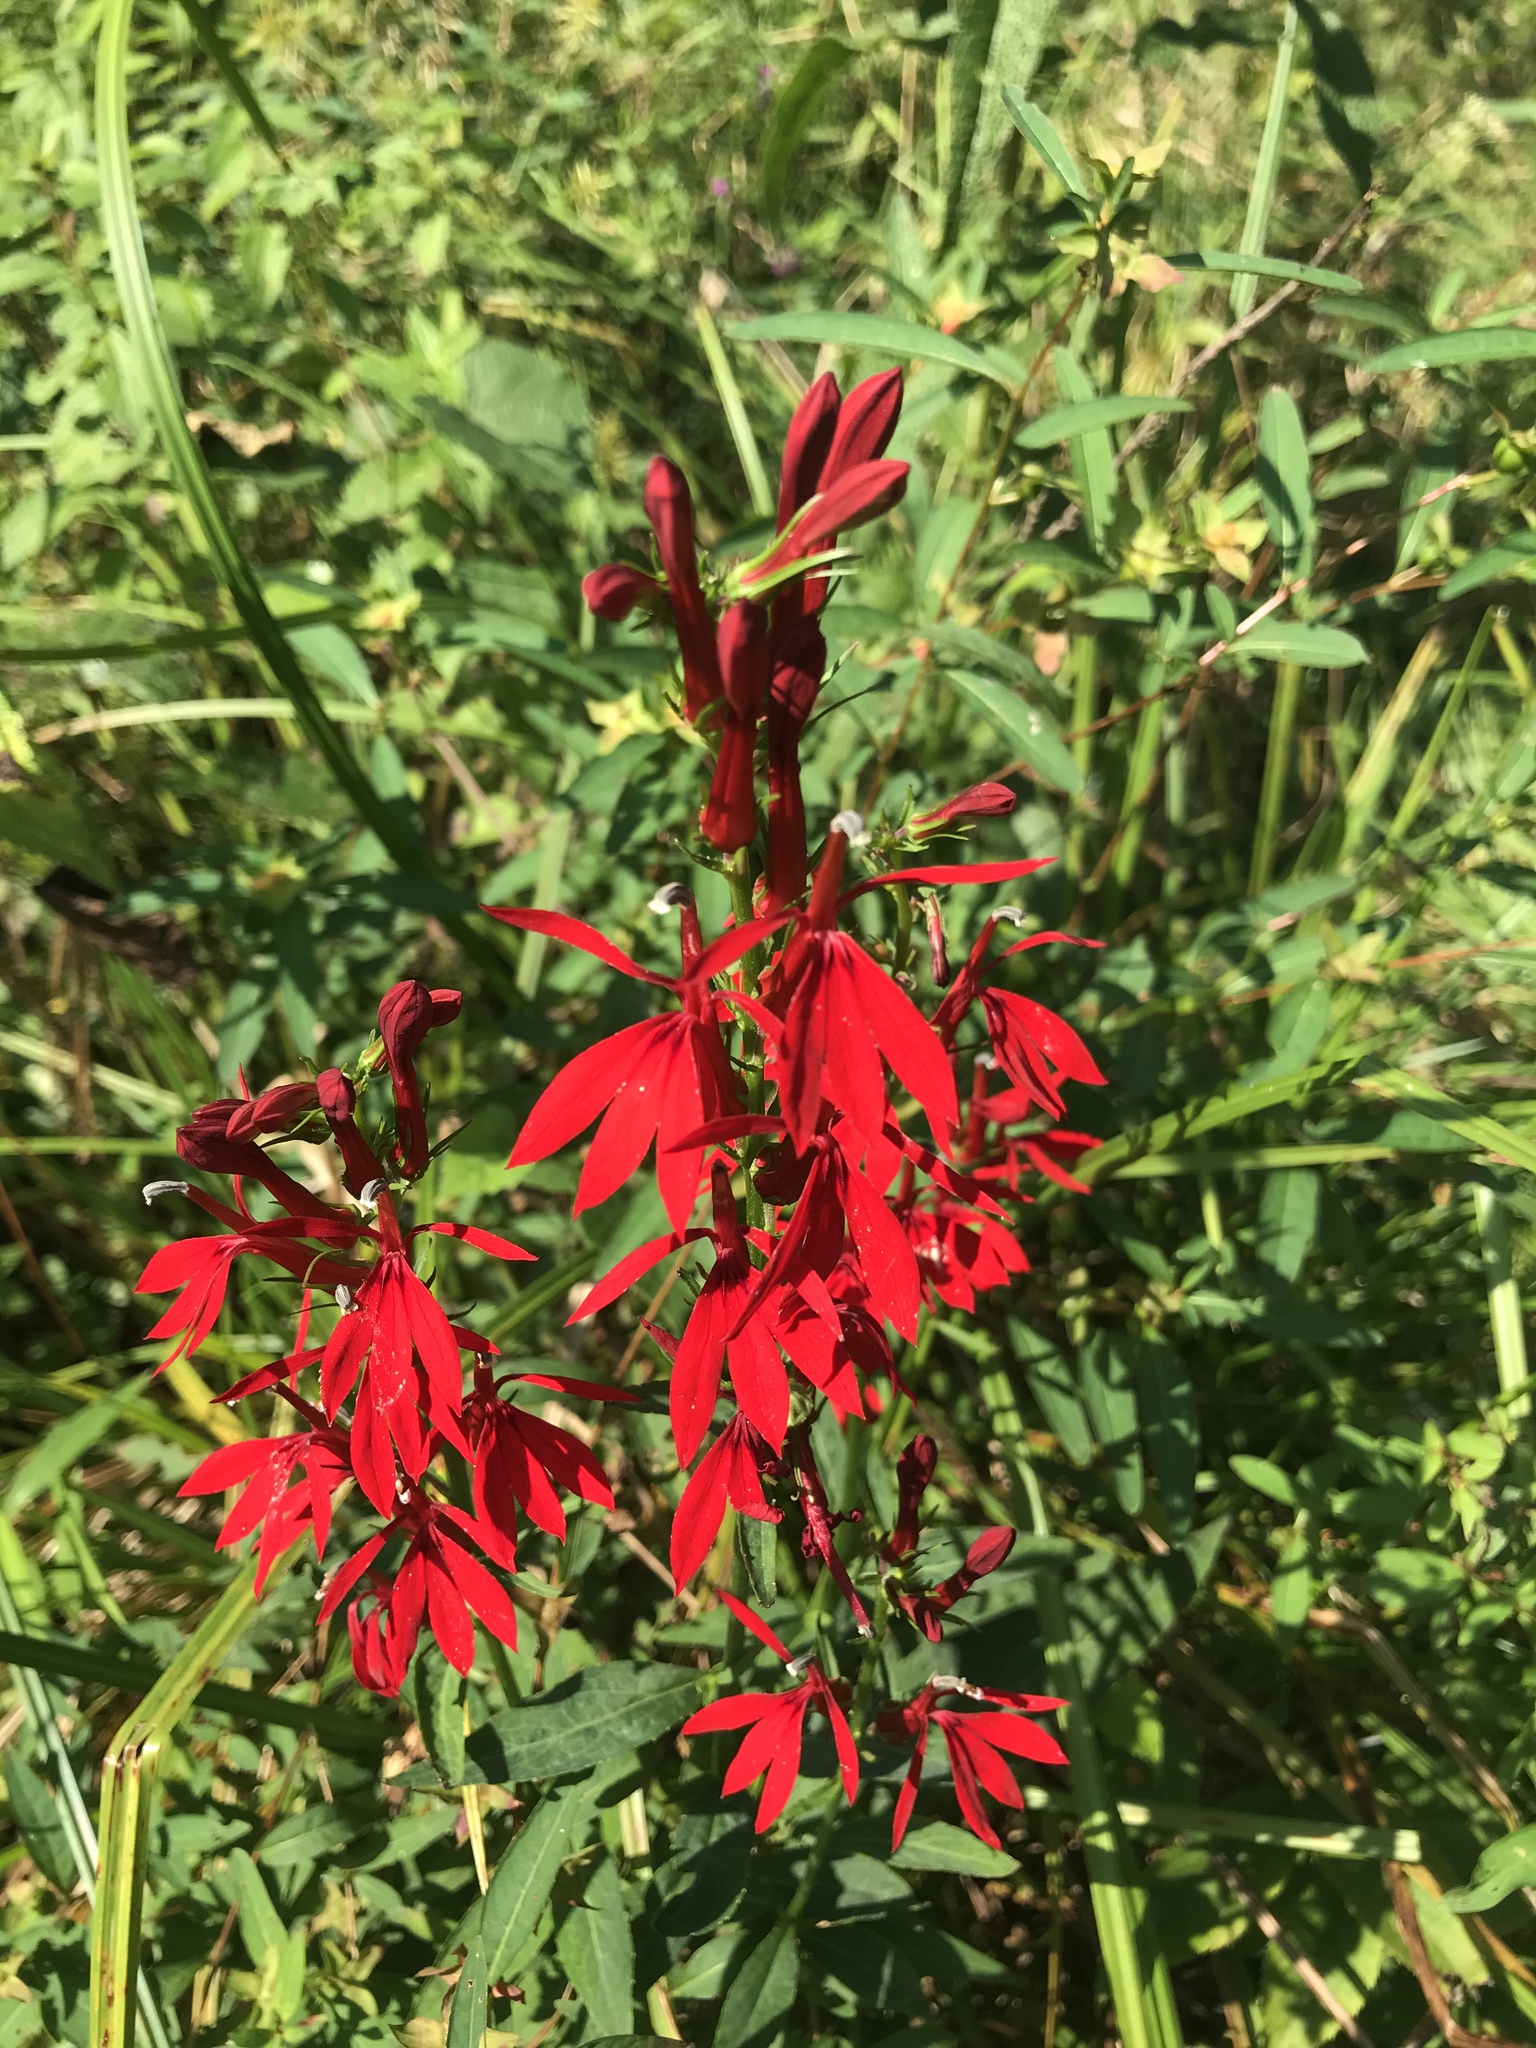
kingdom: Plantae
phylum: Tracheophyta
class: Magnoliopsida
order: Asterales
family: Campanulaceae
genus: Lobelia
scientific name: Lobelia cardinalis
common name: Cardinal flower
